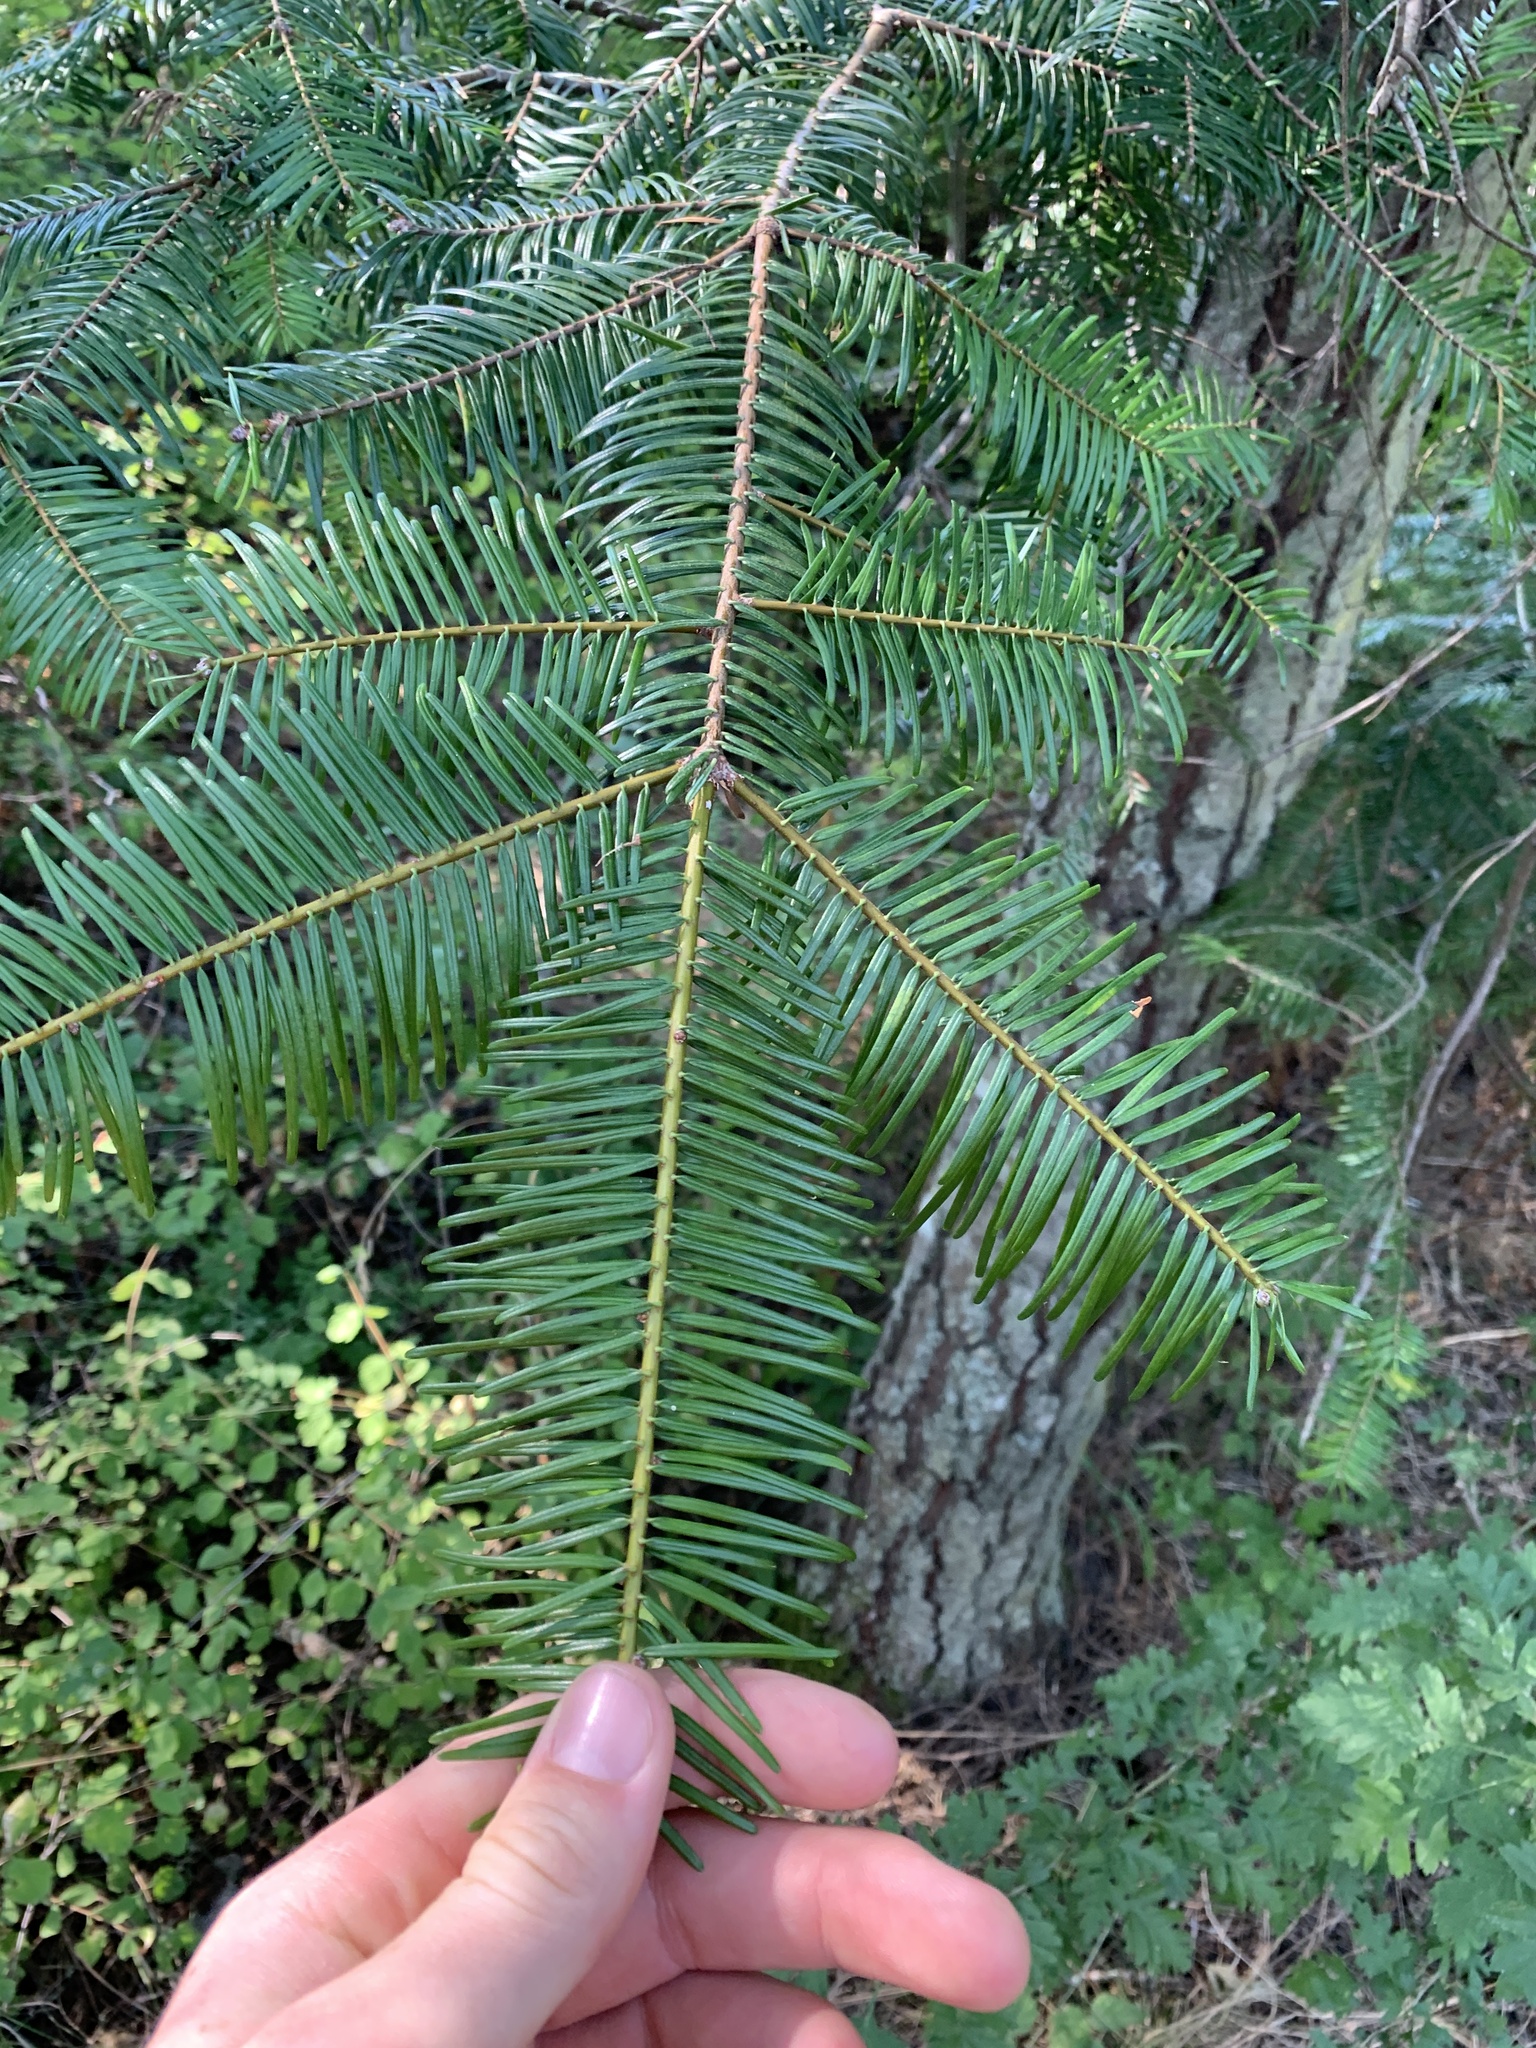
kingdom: Plantae
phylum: Tracheophyta
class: Pinopsida
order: Pinales
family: Pinaceae
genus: Abies
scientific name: Abies grandis
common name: Giant fir
